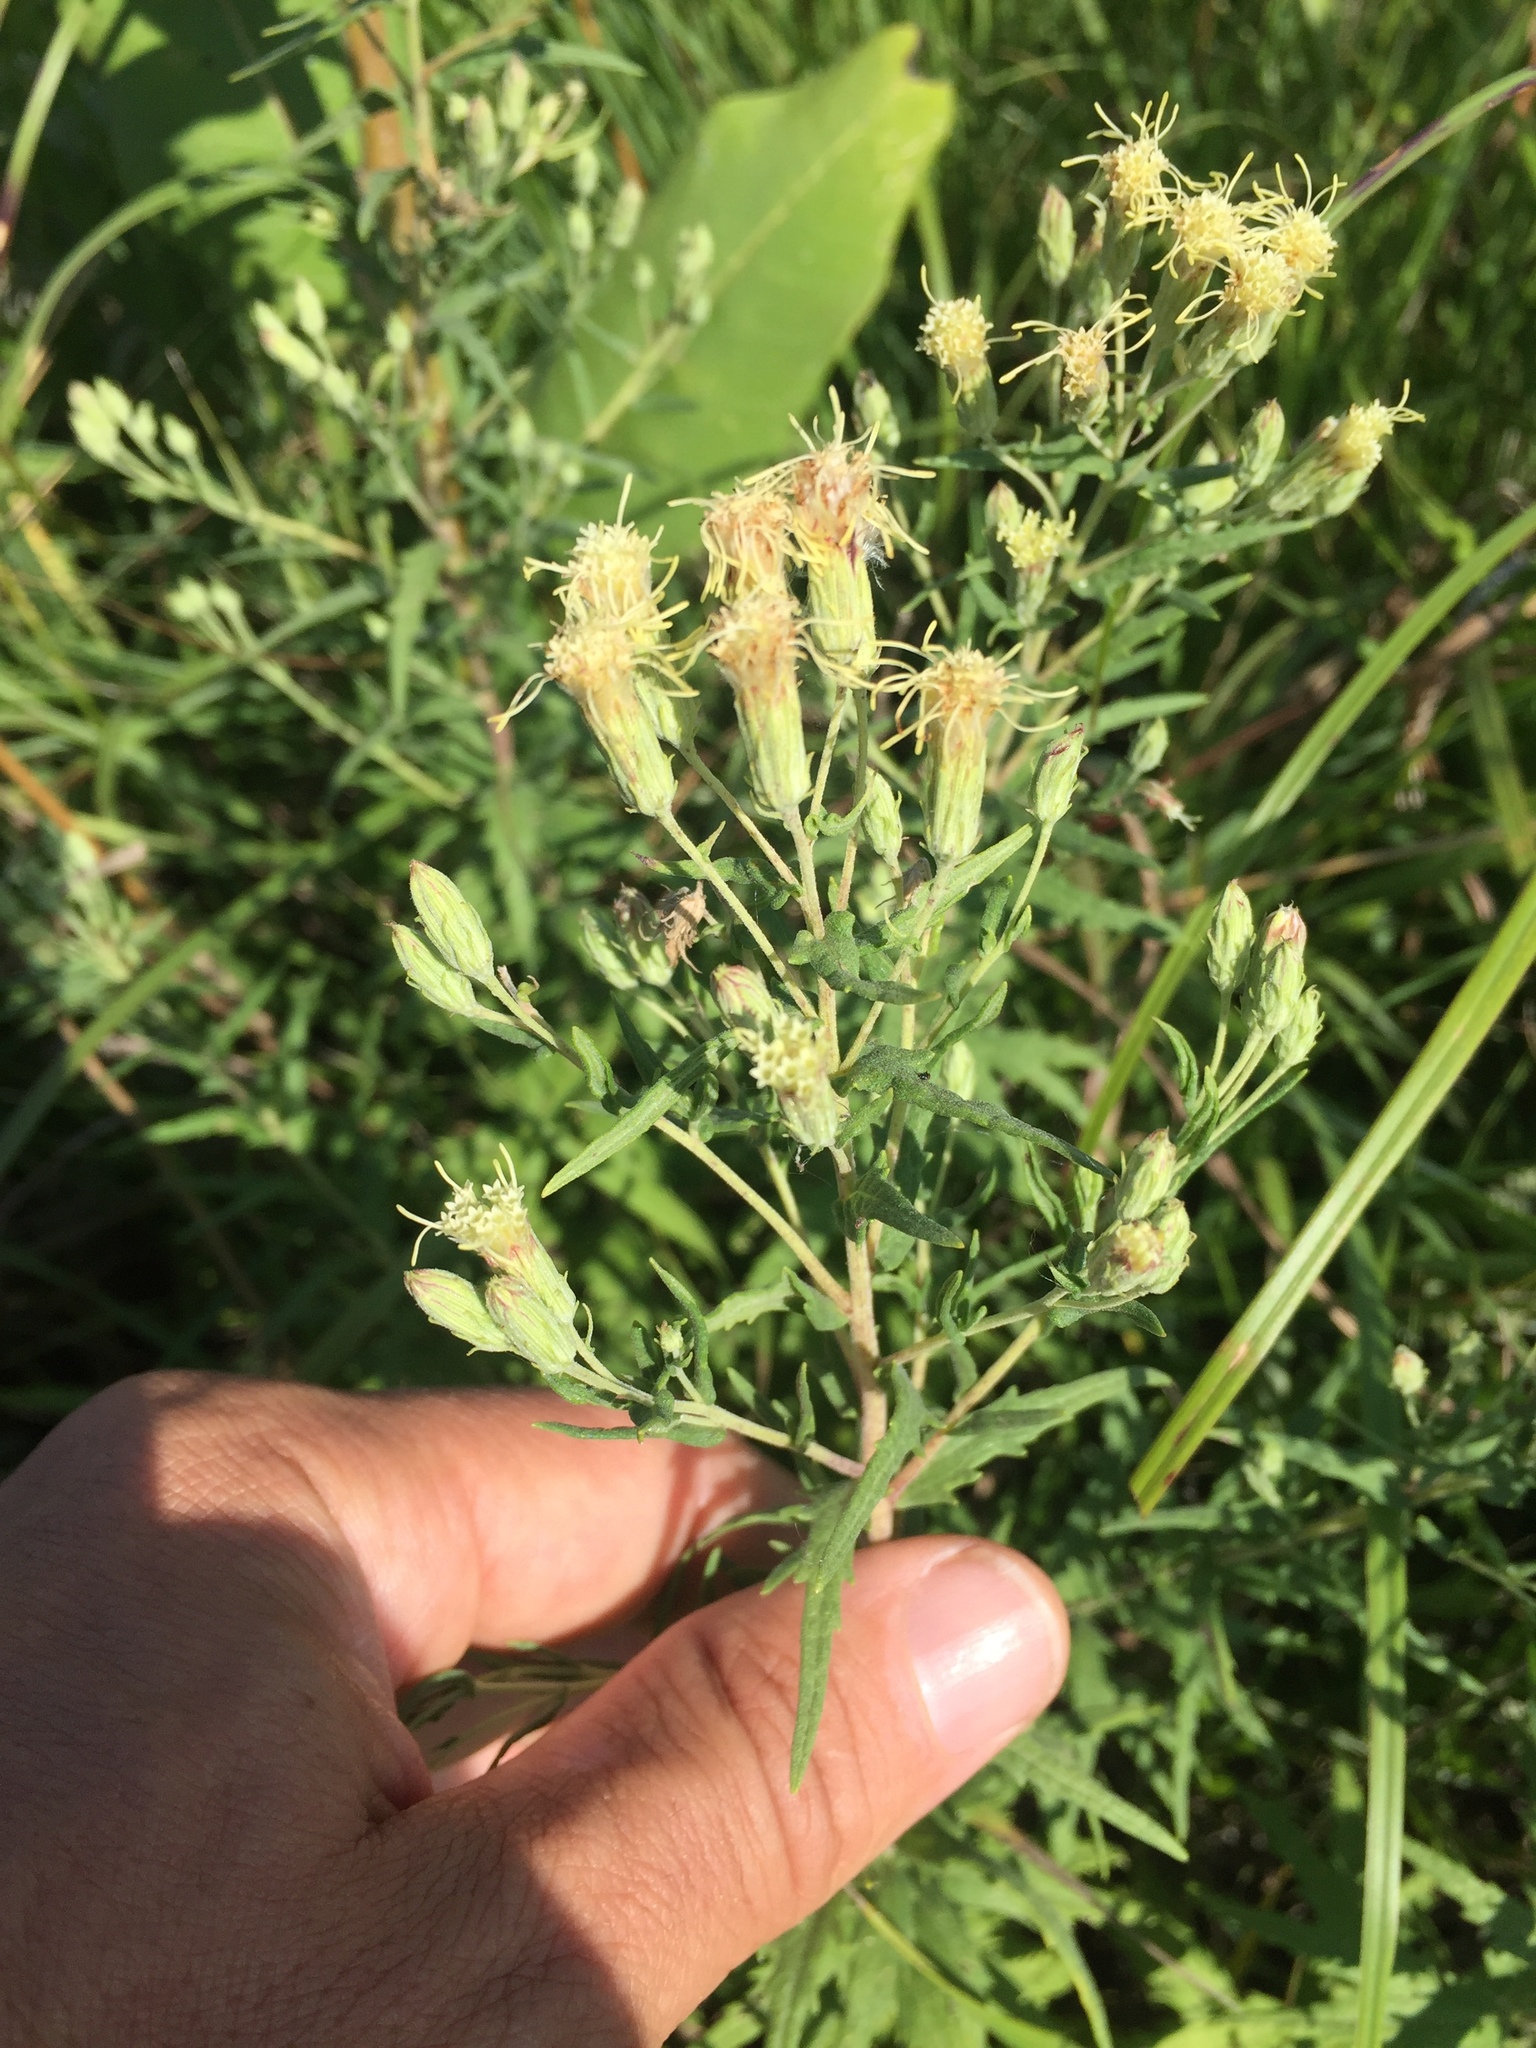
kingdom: Plantae
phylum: Tracheophyta
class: Magnoliopsida
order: Asterales
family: Asteraceae
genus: Brickellia
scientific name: Brickellia eupatorioides
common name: False boneset
